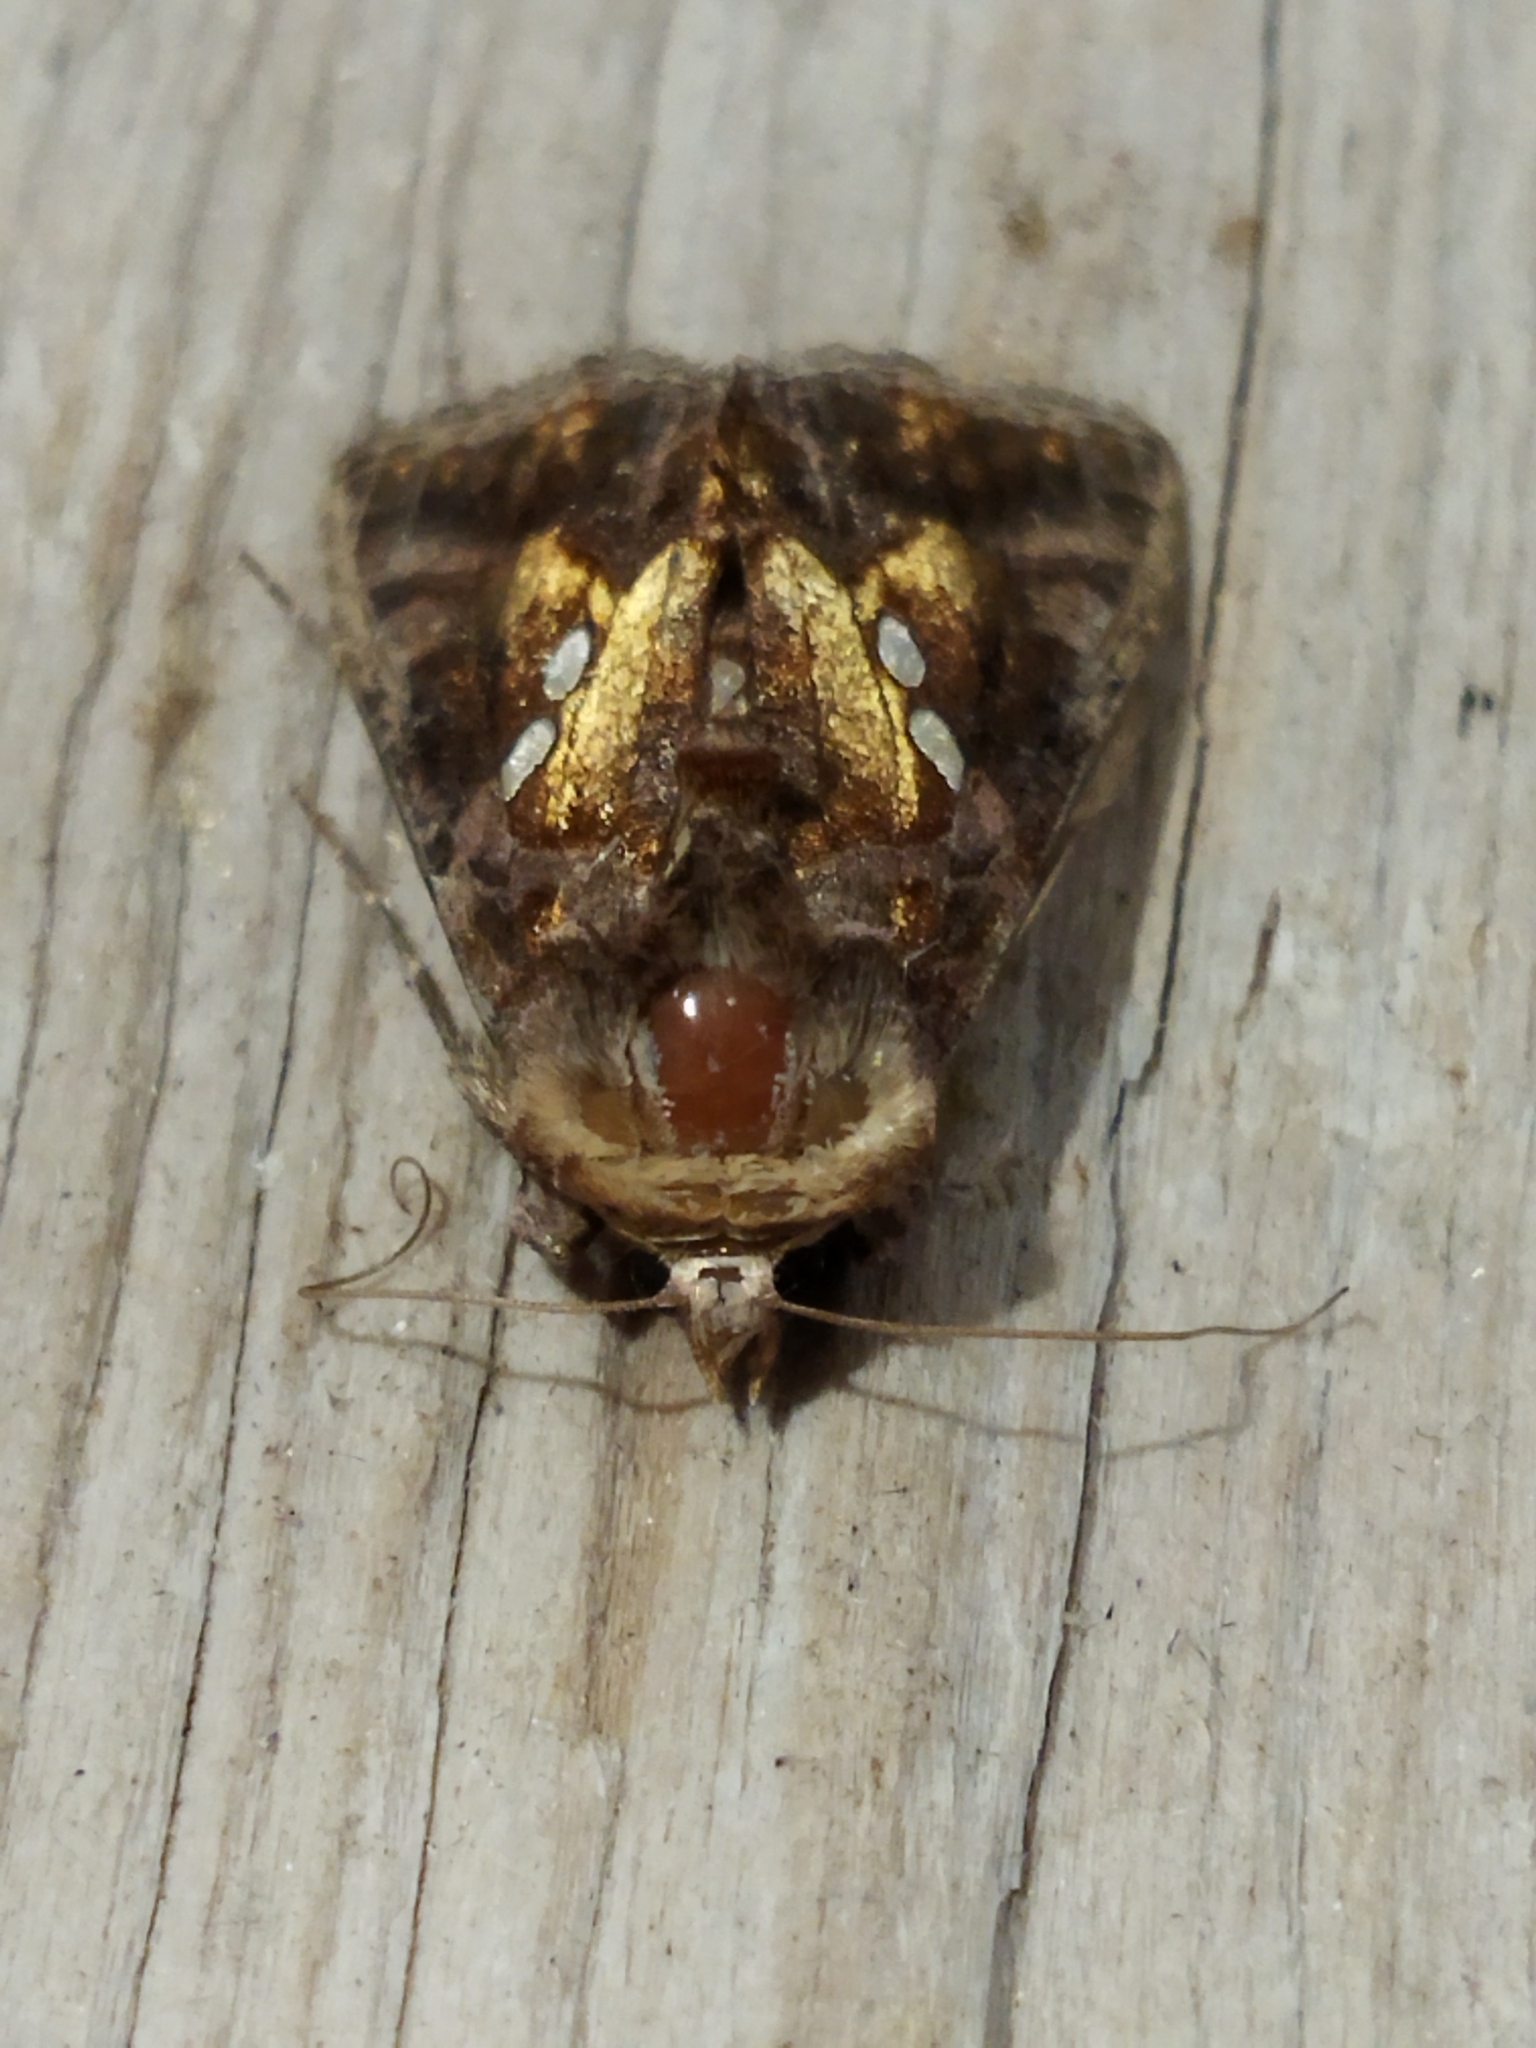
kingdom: Animalia
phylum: Arthropoda
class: Insecta
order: Lepidoptera
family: Noctuidae
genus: Chrysodeixis
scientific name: Chrysodeixis chalcites
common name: Golden twin-spot
